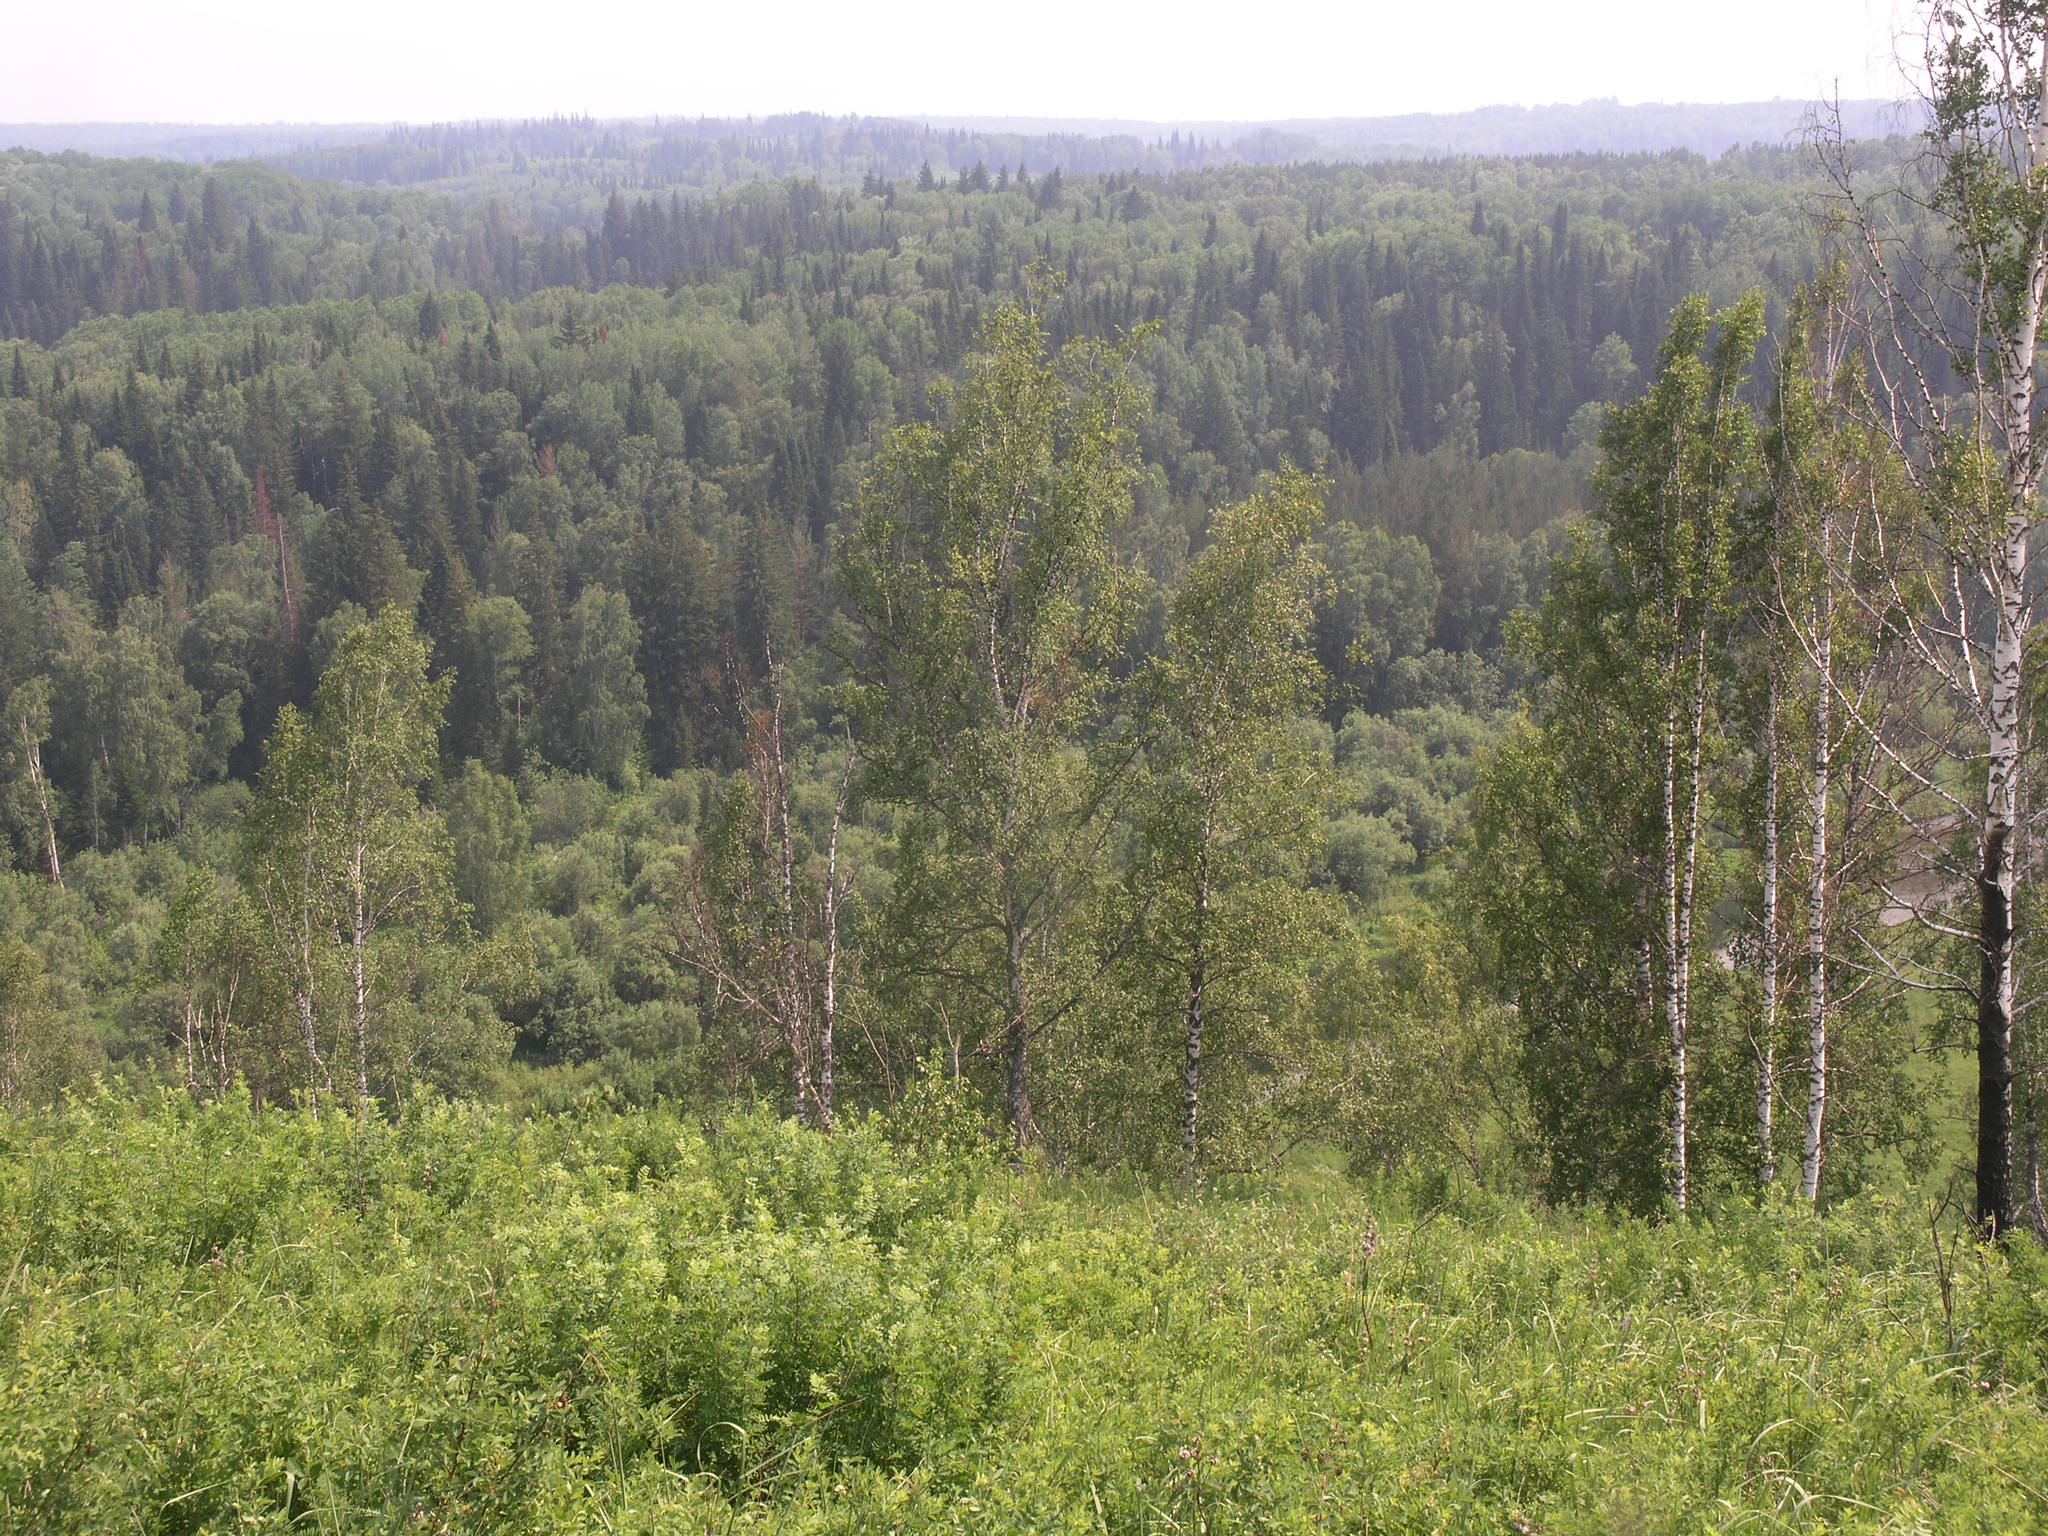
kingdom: Plantae
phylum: Tracheophyta
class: Magnoliopsida
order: Fagales
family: Betulaceae
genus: Betula
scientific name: Betula pendula
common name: Silver birch
